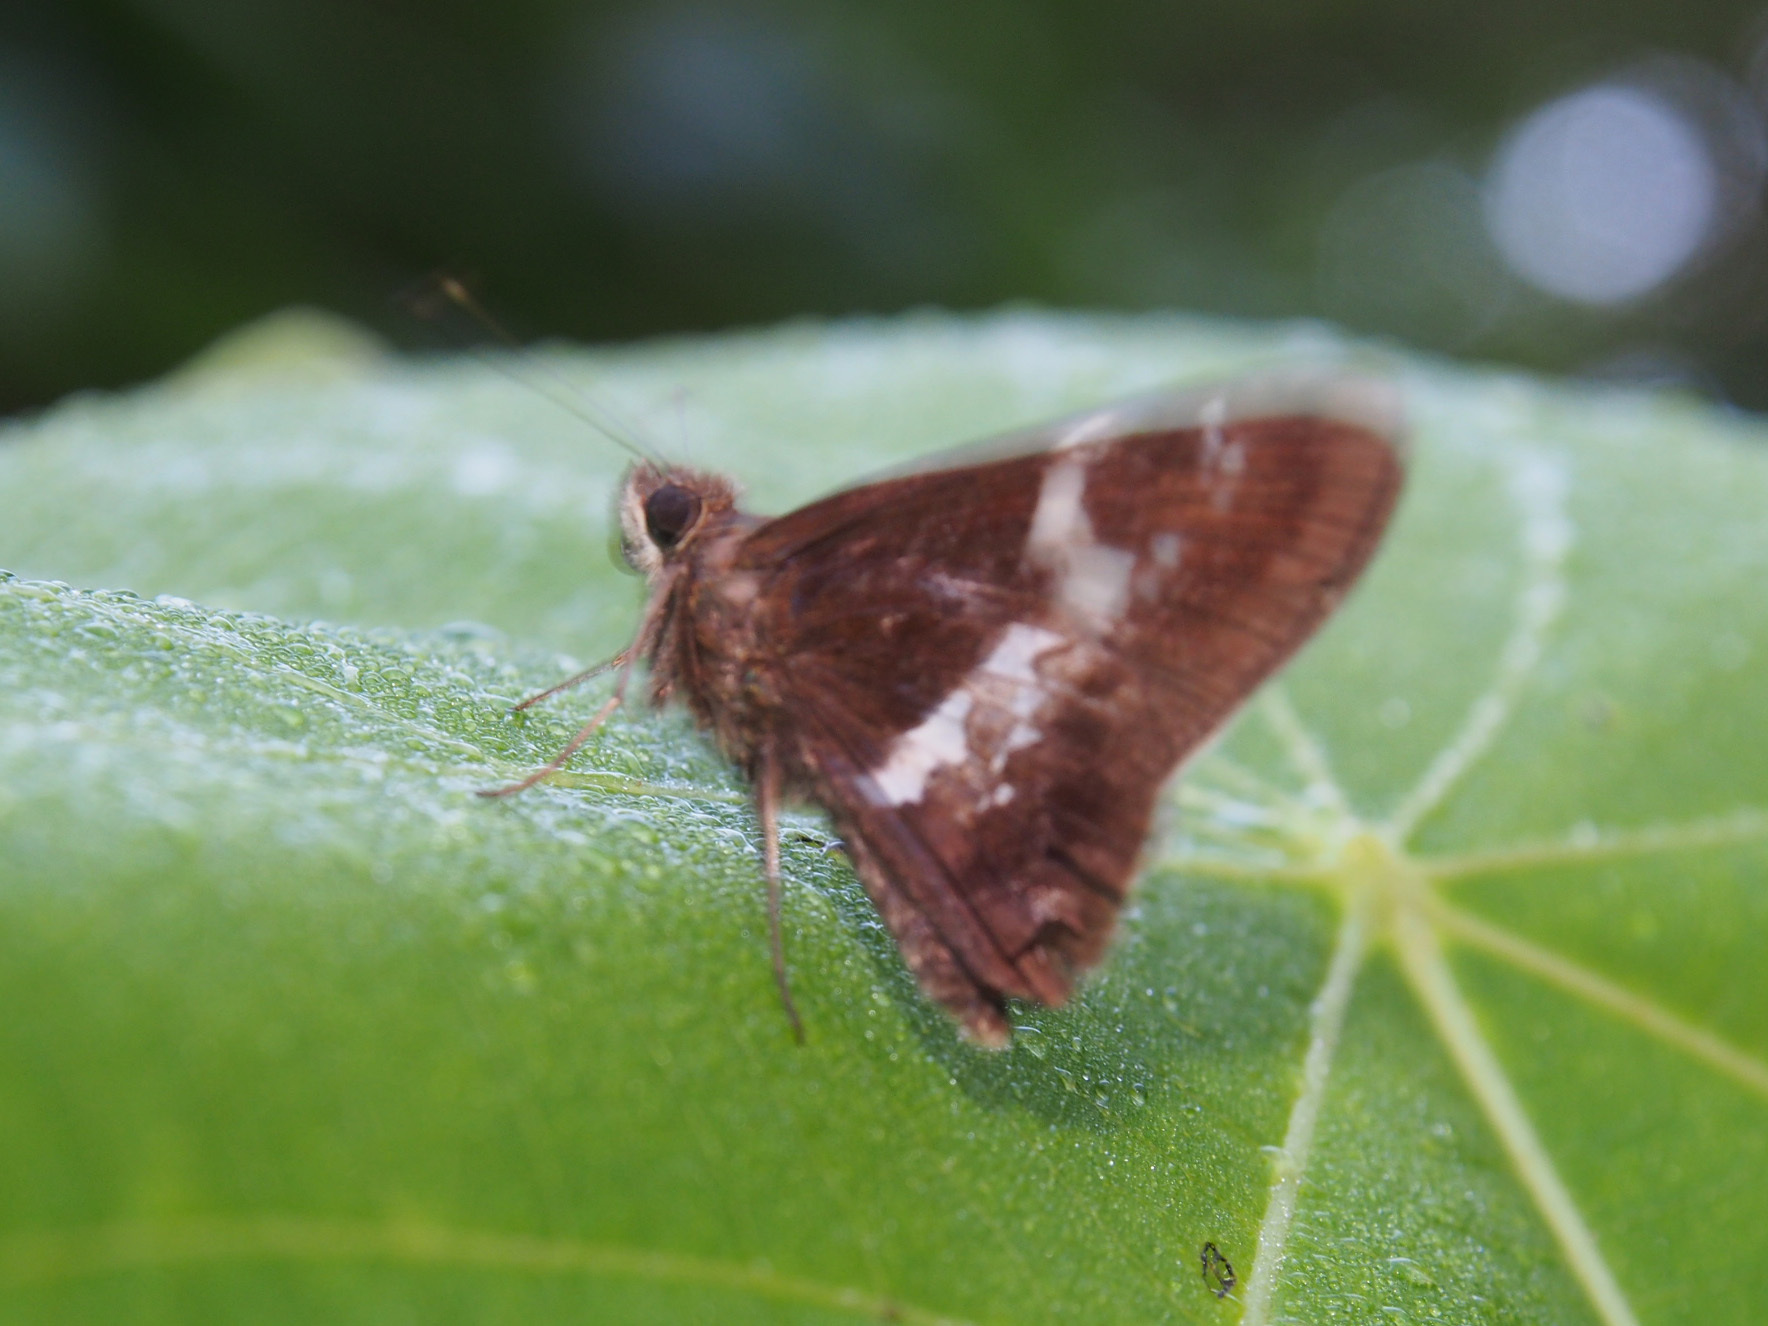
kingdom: Animalia
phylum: Arthropoda
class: Insecta
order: Lepidoptera
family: Hesperiidae
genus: Hyarotis
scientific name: Hyarotis adrastus
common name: Tree flitter
